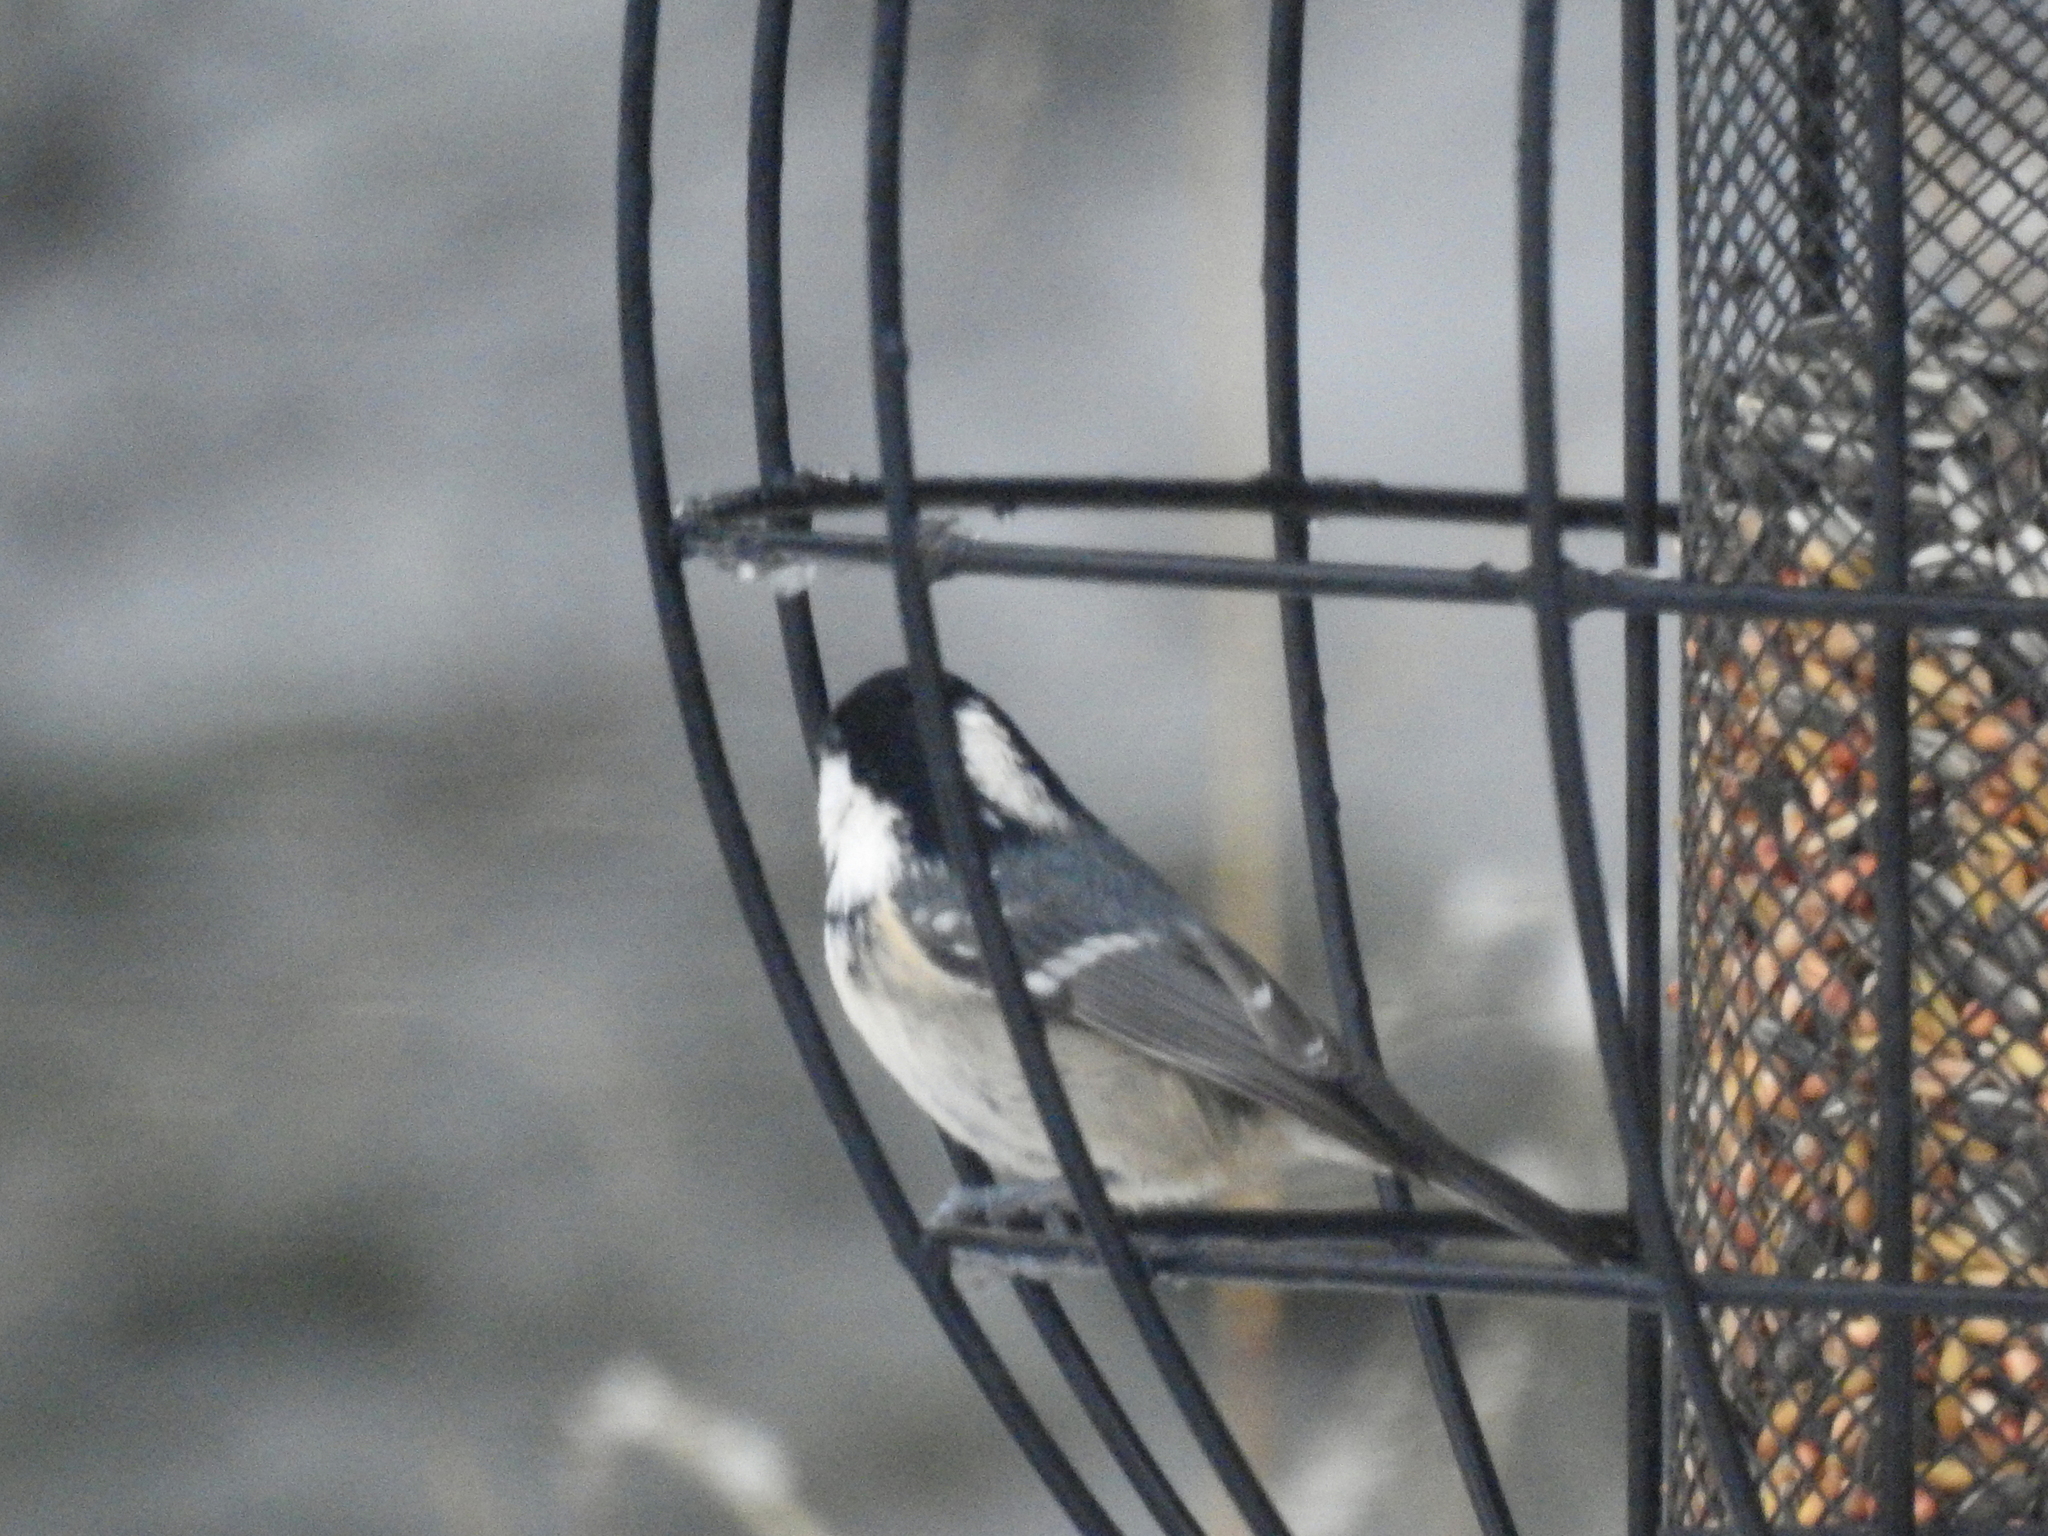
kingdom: Animalia
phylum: Chordata
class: Aves
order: Passeriformes
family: Paridae
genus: Periparus
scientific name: Periparus ater
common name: Coal tit
